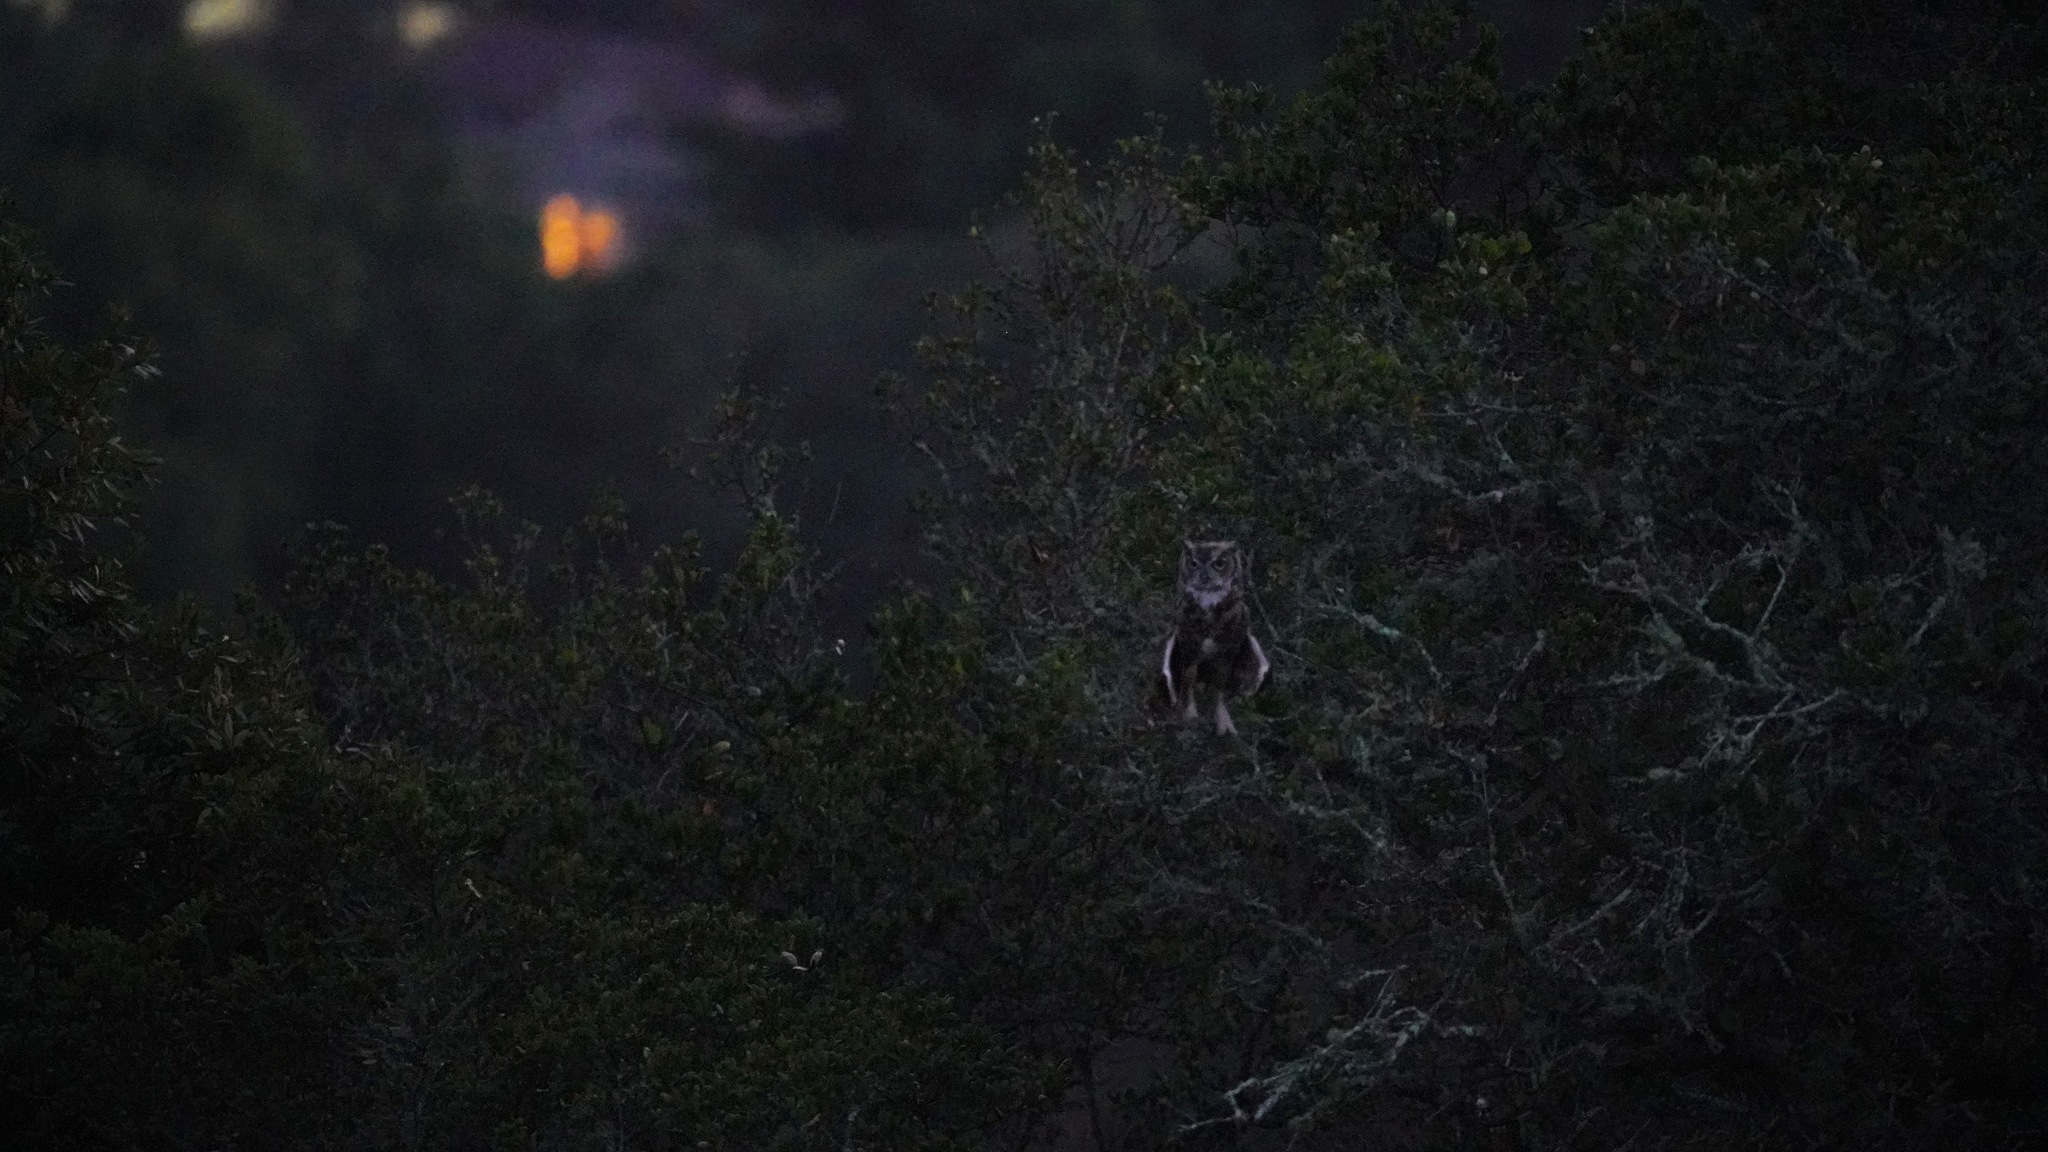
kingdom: Animalia
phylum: Chordata
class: Aves
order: Strigiformes
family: Strigidae
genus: Bubo
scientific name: Bubo virginianus
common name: Great horned owl
